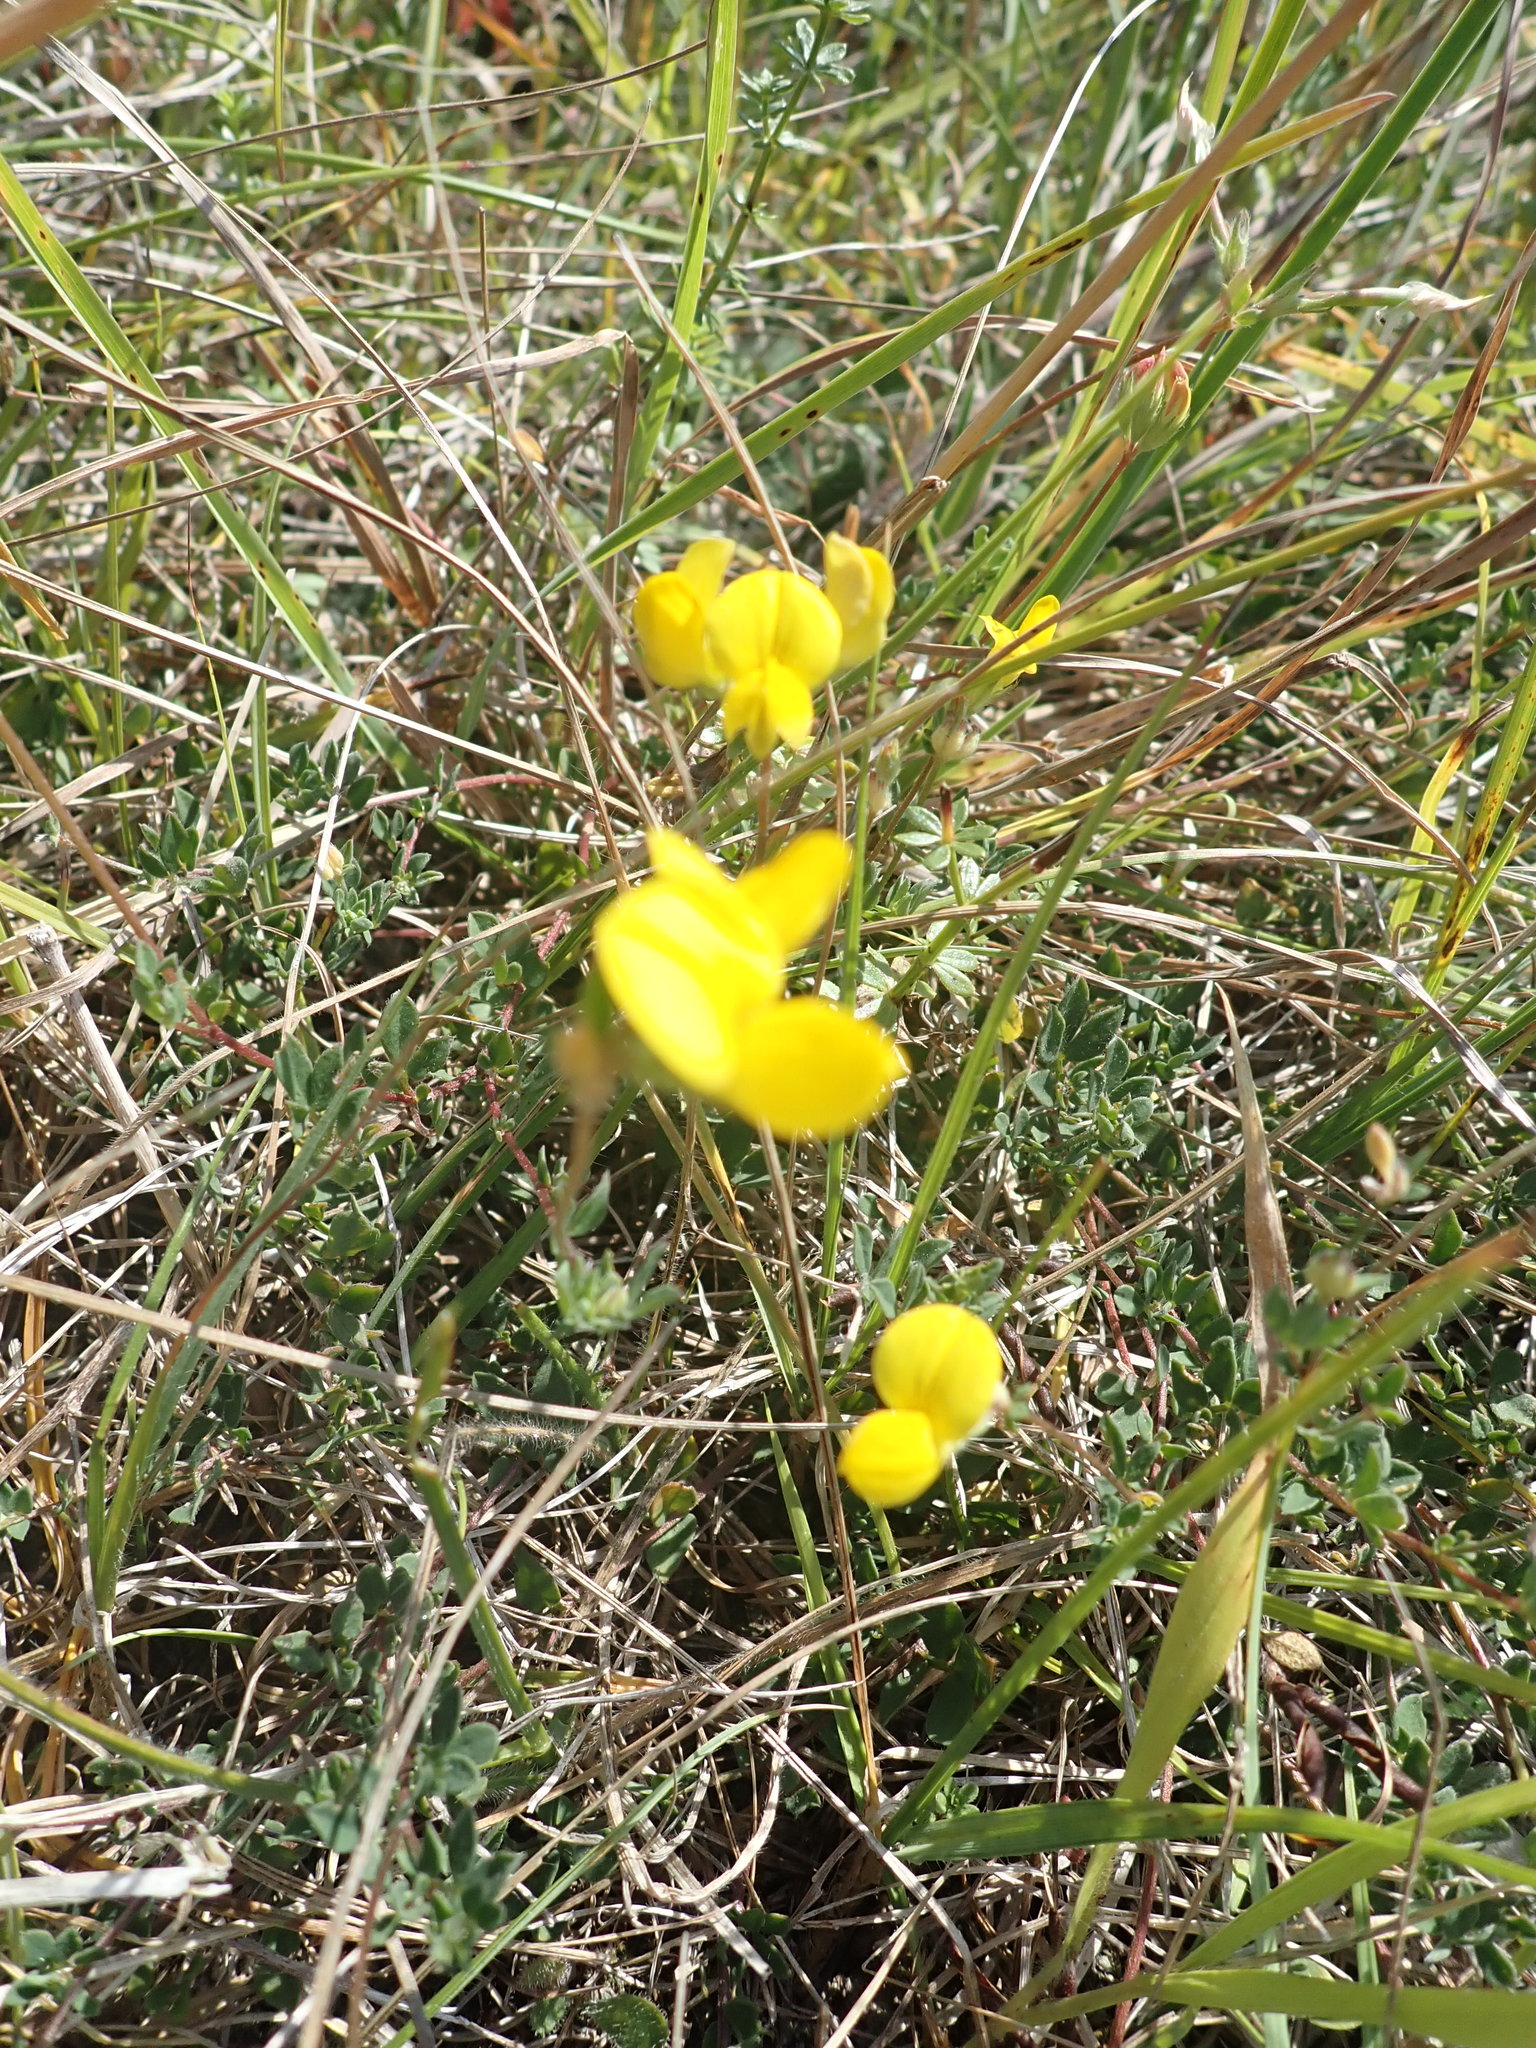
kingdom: Plantae
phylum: Tracheophyta
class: Magnoliopsida
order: Fabales
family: Fabaceae
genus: Lotus
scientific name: Lotus corniculatus
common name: Common bird's-foot-trefoil
